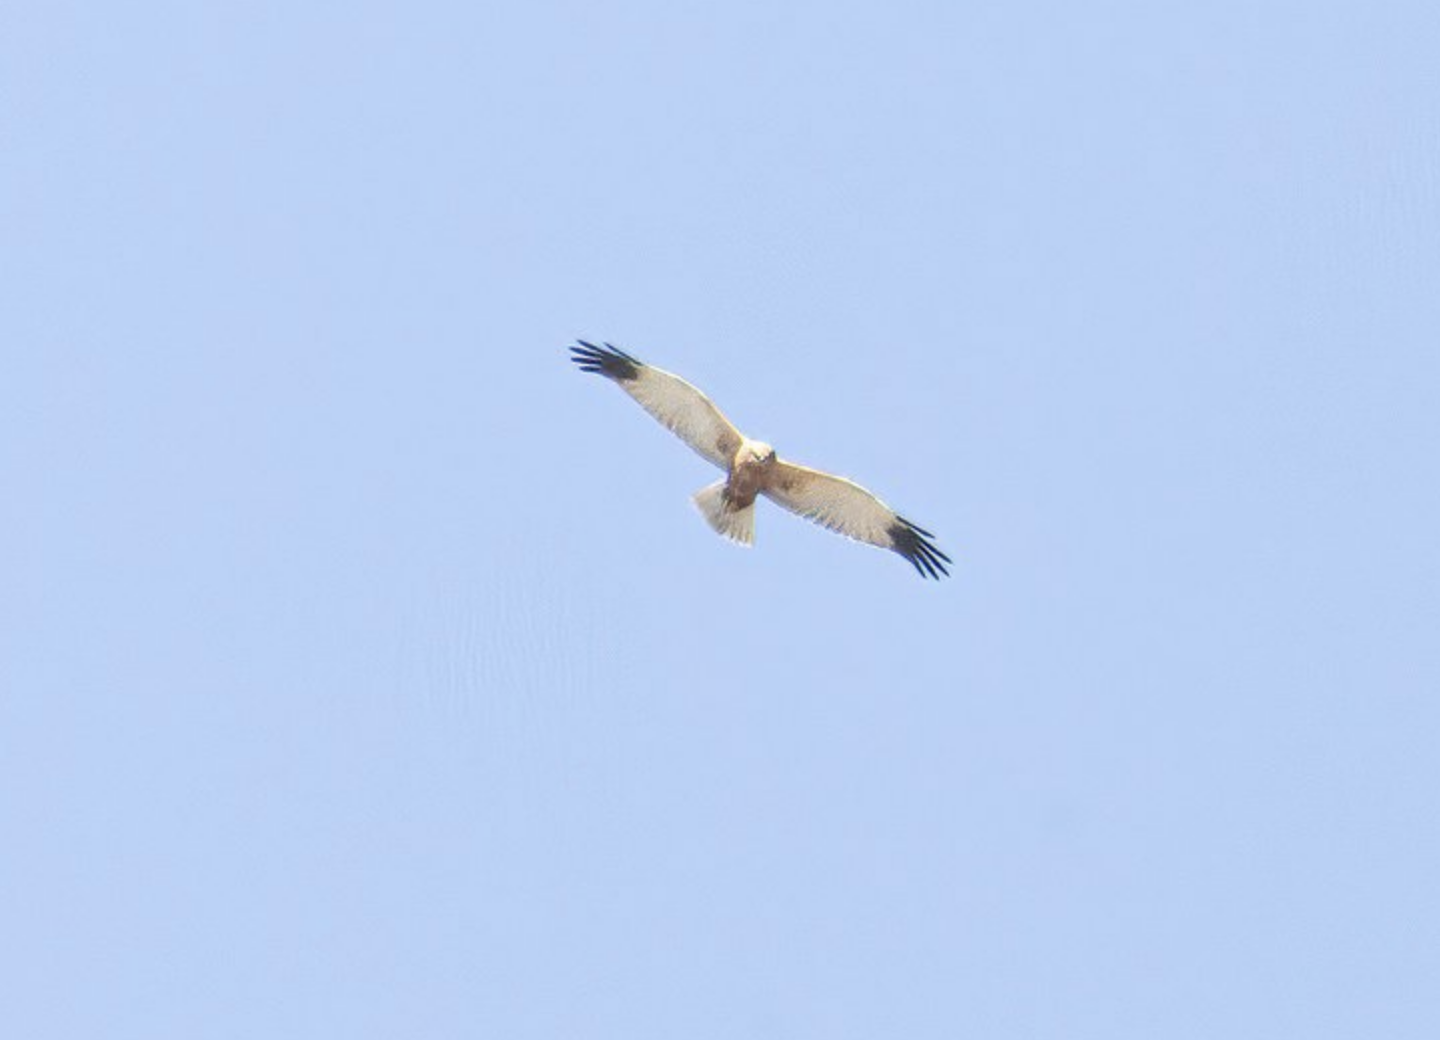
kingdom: Animalia
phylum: Chordata
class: Aves
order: Accipitriformes
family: Accipitridae
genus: Circus
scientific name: Circus aeruginosus
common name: Western marsh harrier
